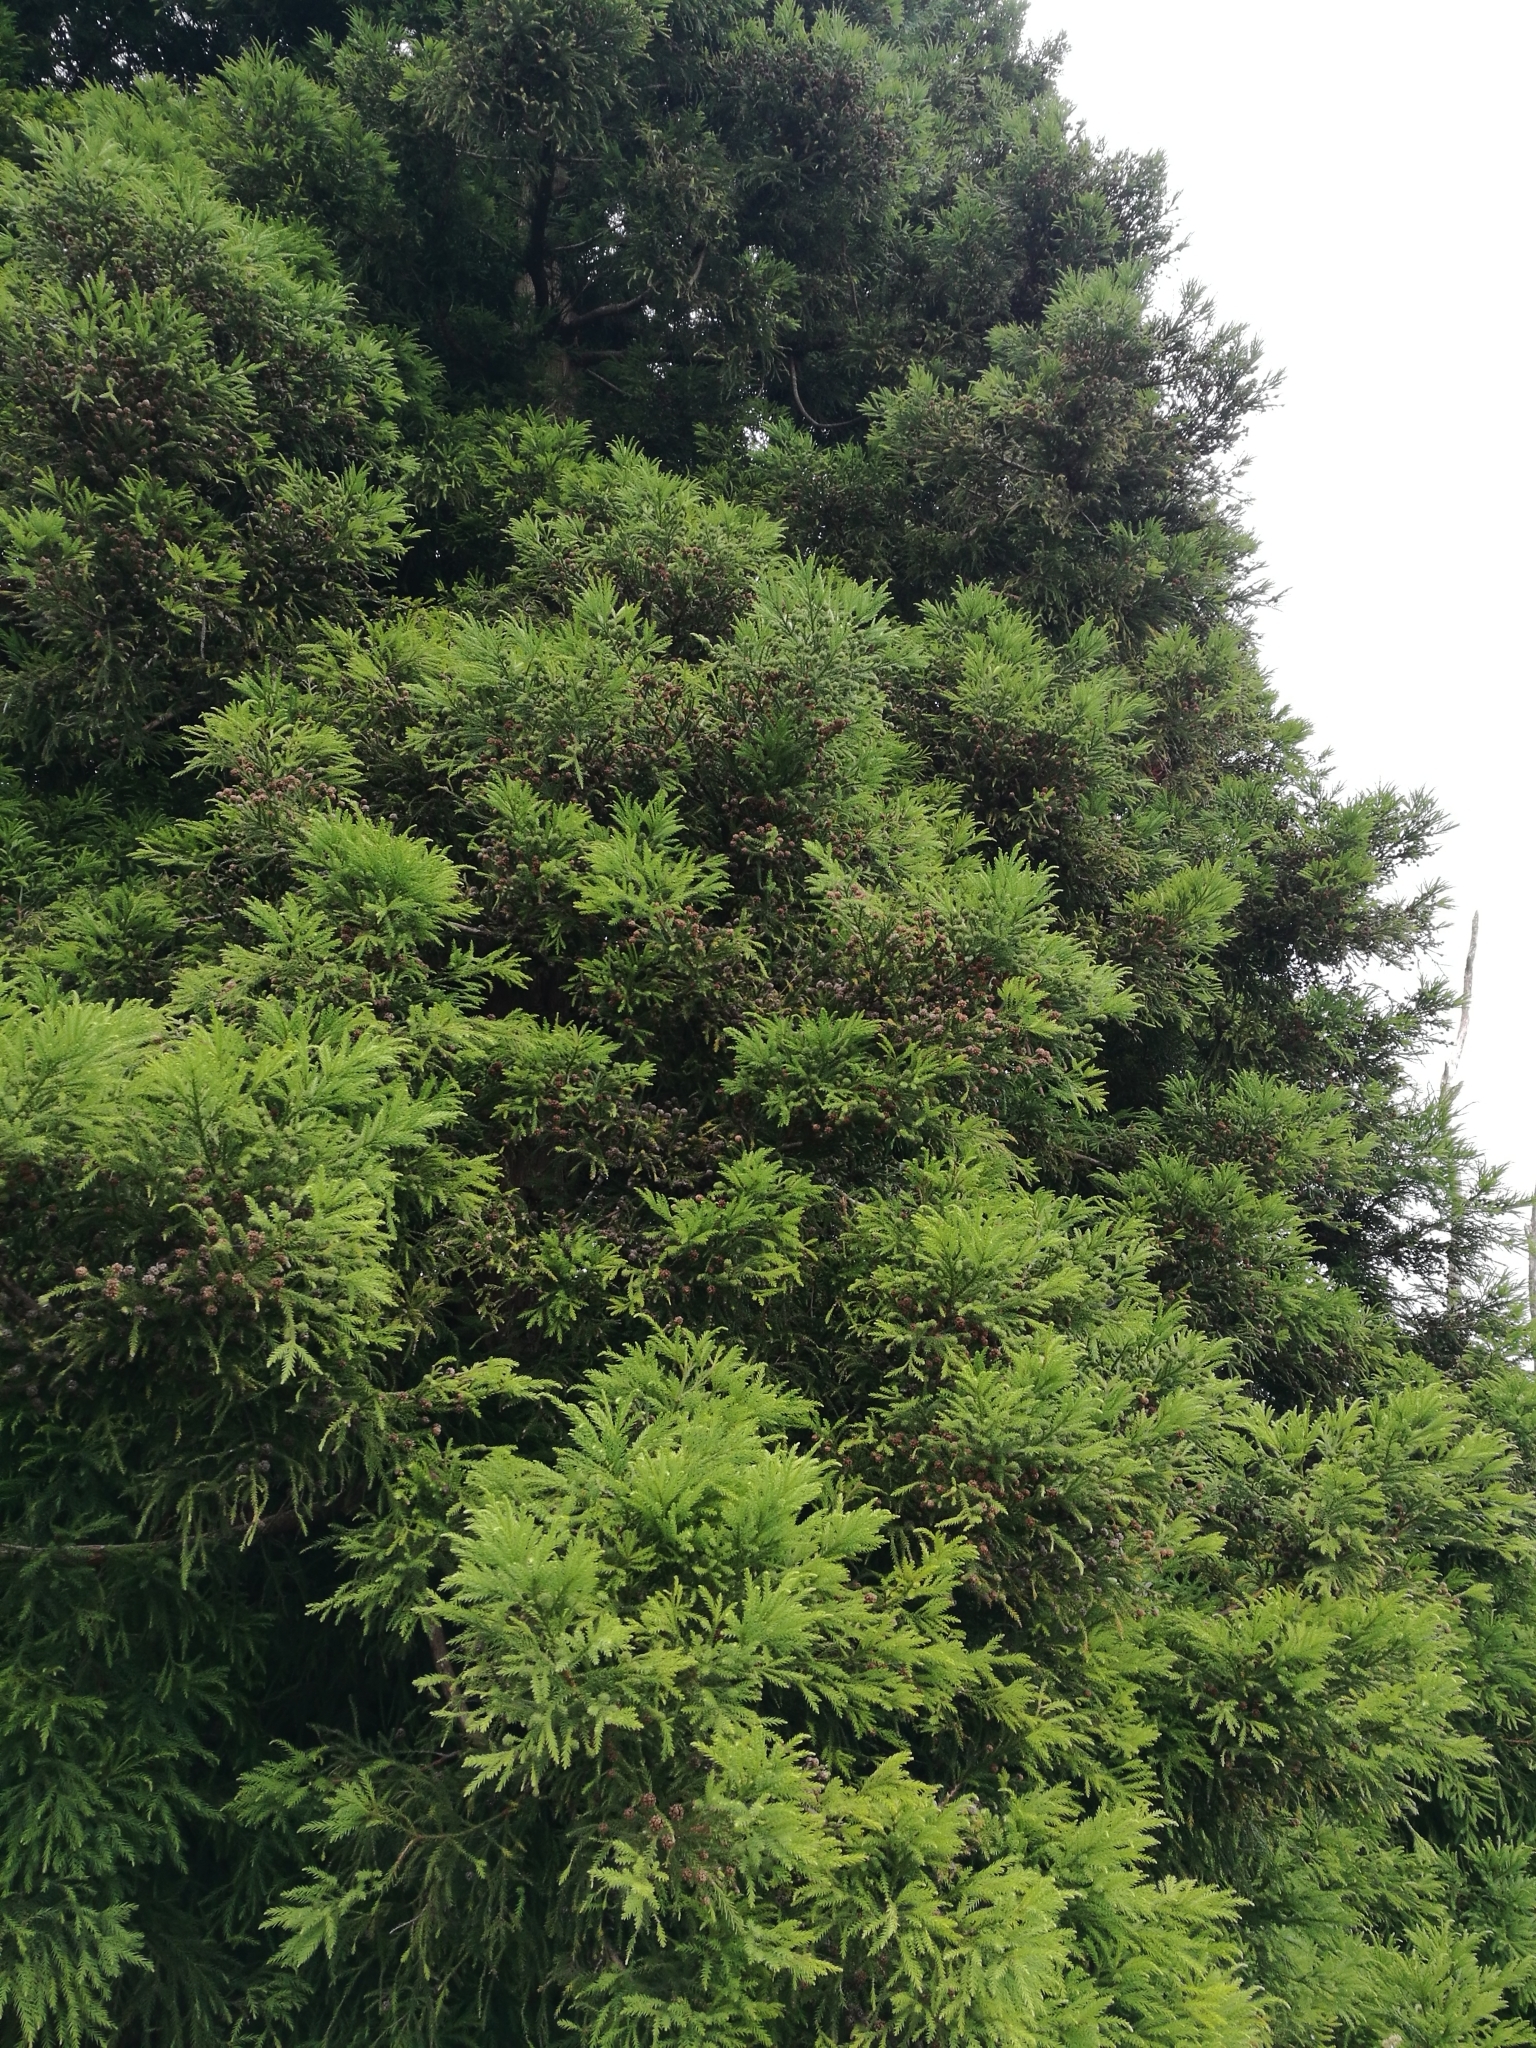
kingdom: Plantae
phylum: Tracheophyta
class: Pinopsida
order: Pinales
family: Cupressaceae
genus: Cryptomeria
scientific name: Cryptomeria japonica
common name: Japanese cedar
